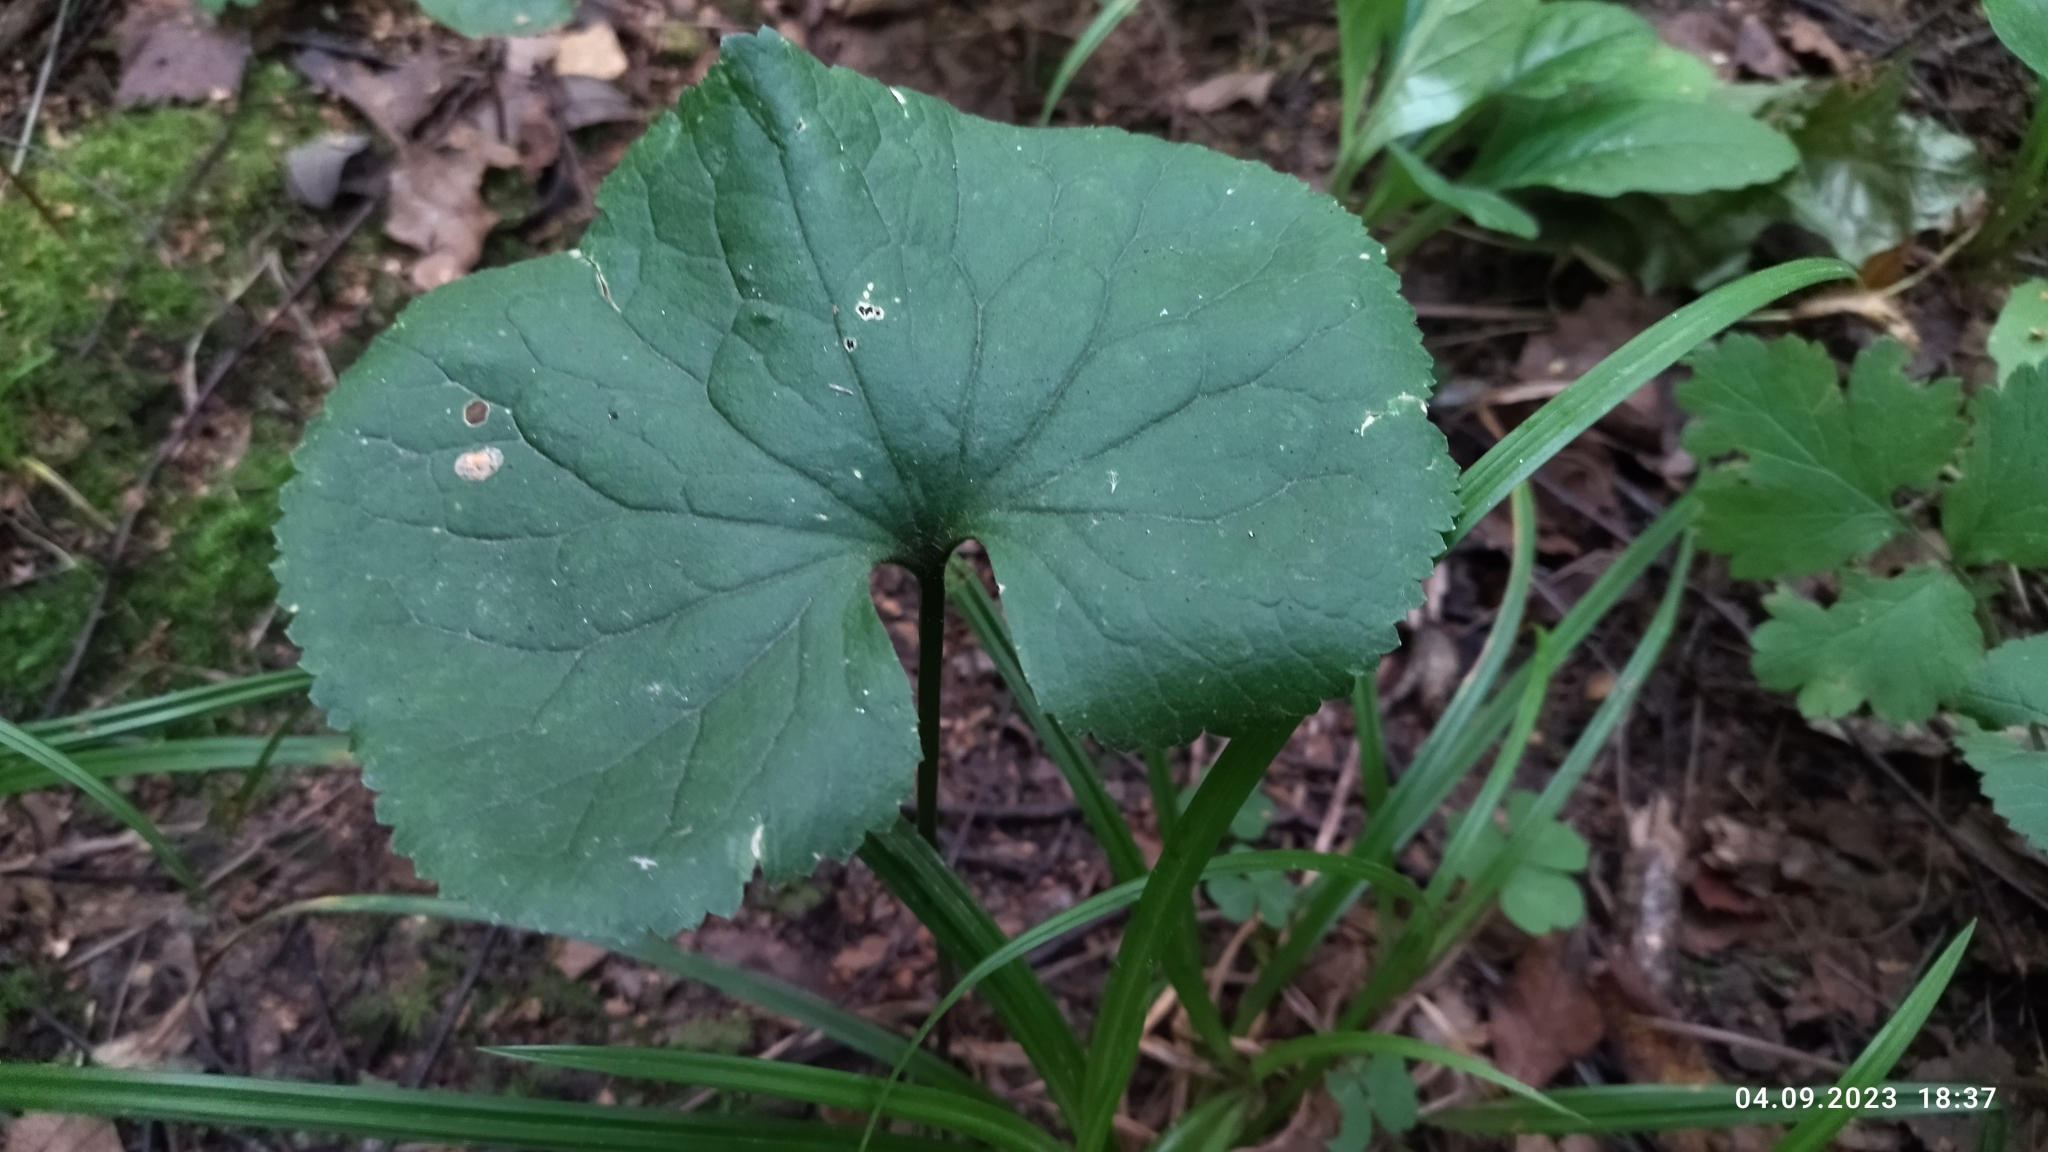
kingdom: Plantae
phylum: Tracheophyta
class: Magnoliopsida
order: Ranunculales
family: Ranunculaceae
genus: Ranunculus
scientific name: Ranunculus cassubicus
